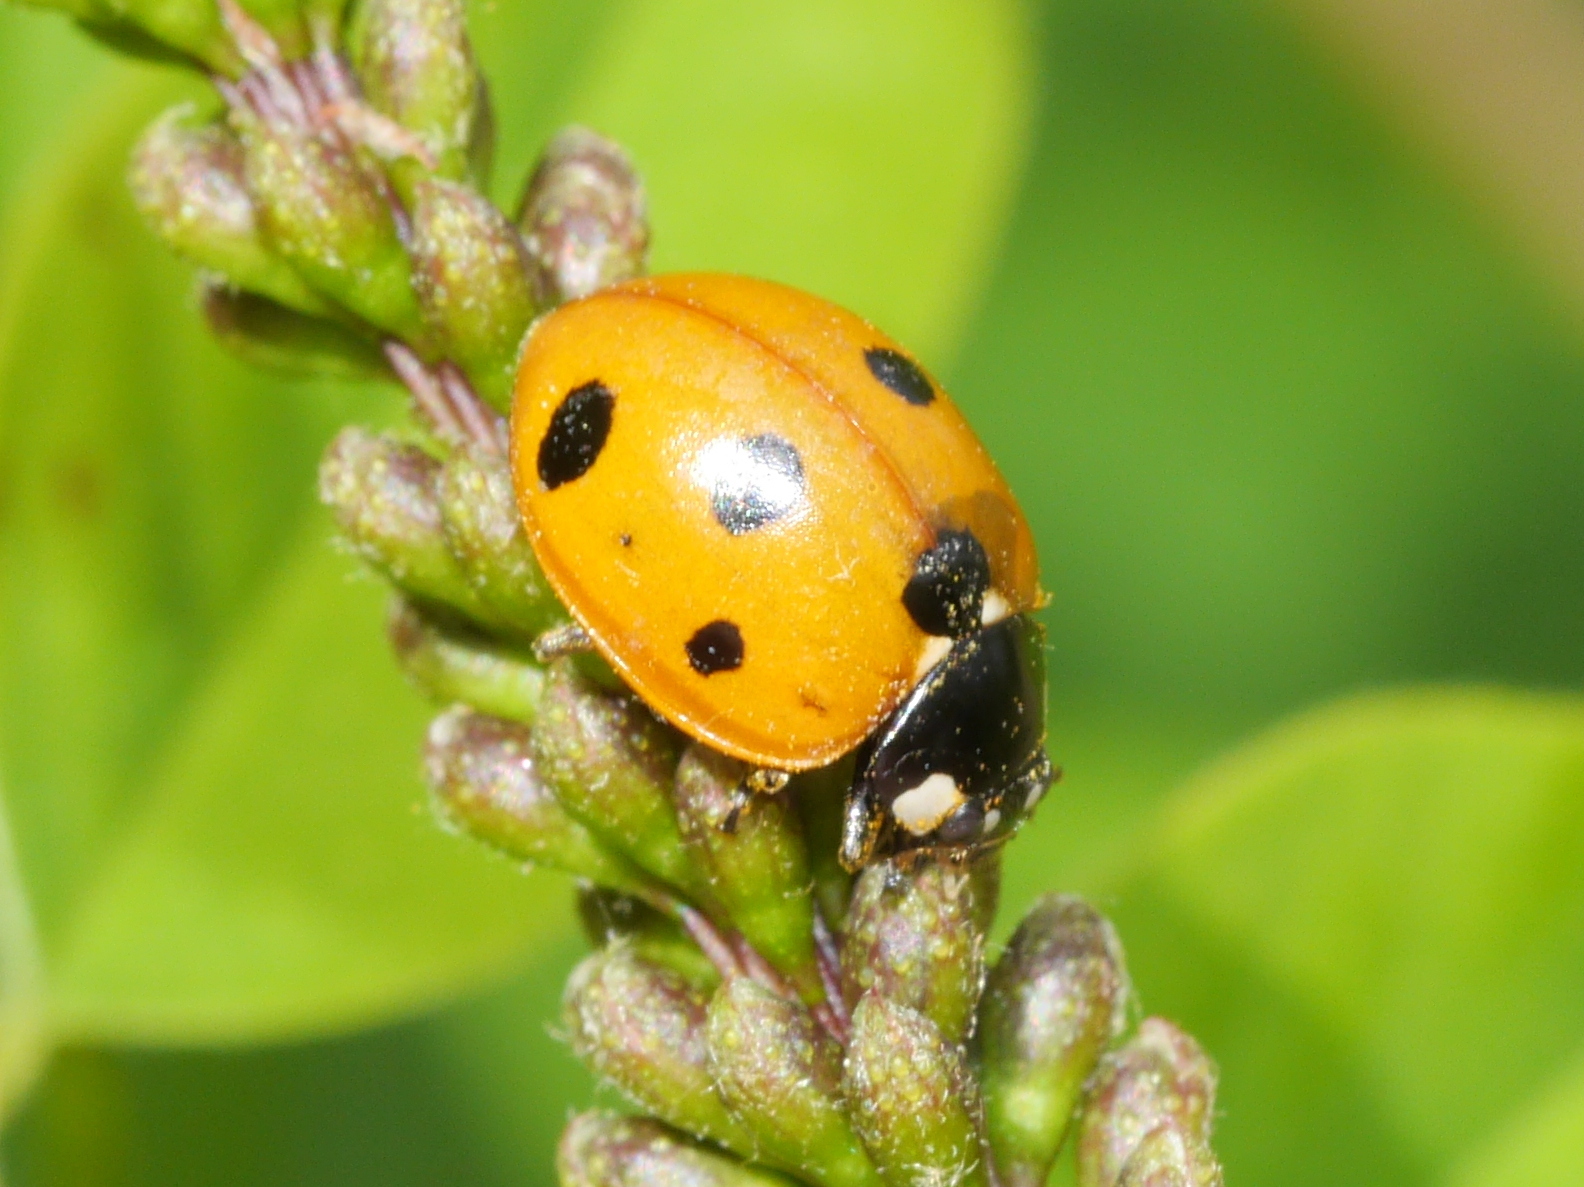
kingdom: Animalia
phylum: Arthropoda
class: Insecta
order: Coleoptera
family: Coccinellidae
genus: Coccinella
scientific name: Coccinella septempunctata
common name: Sevenspotted lady beetle
